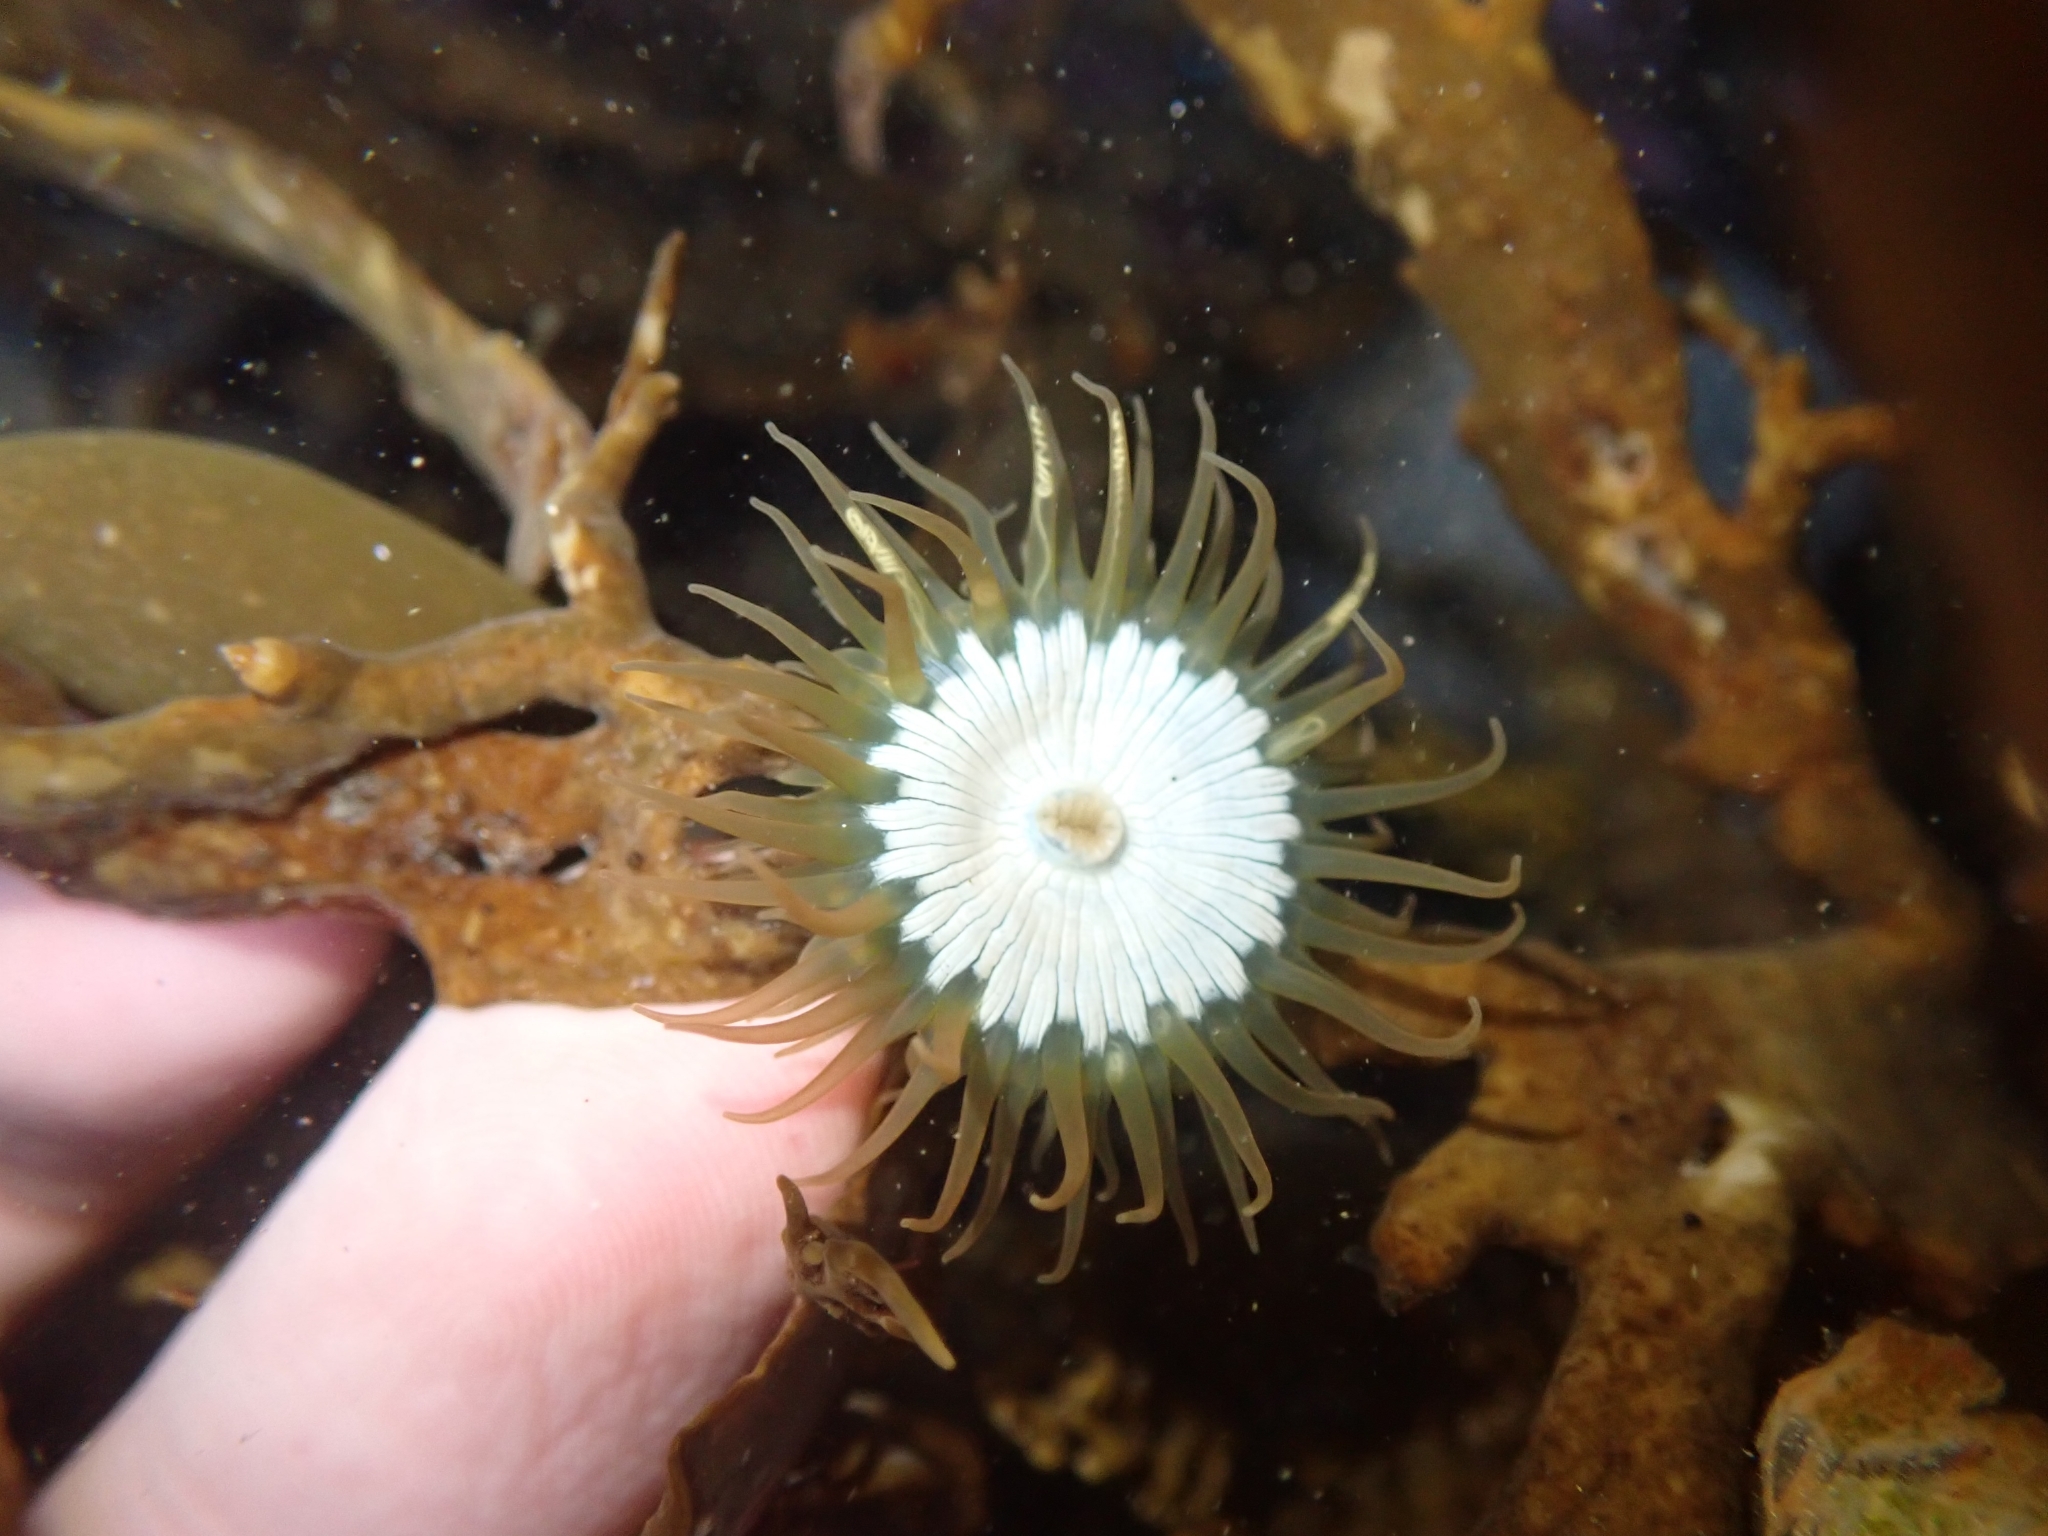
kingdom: Animalia
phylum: Cnidaria
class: Anthozoa
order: Actiniaria
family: Hormathiidae
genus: Handactis
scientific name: Handactis nutrix
